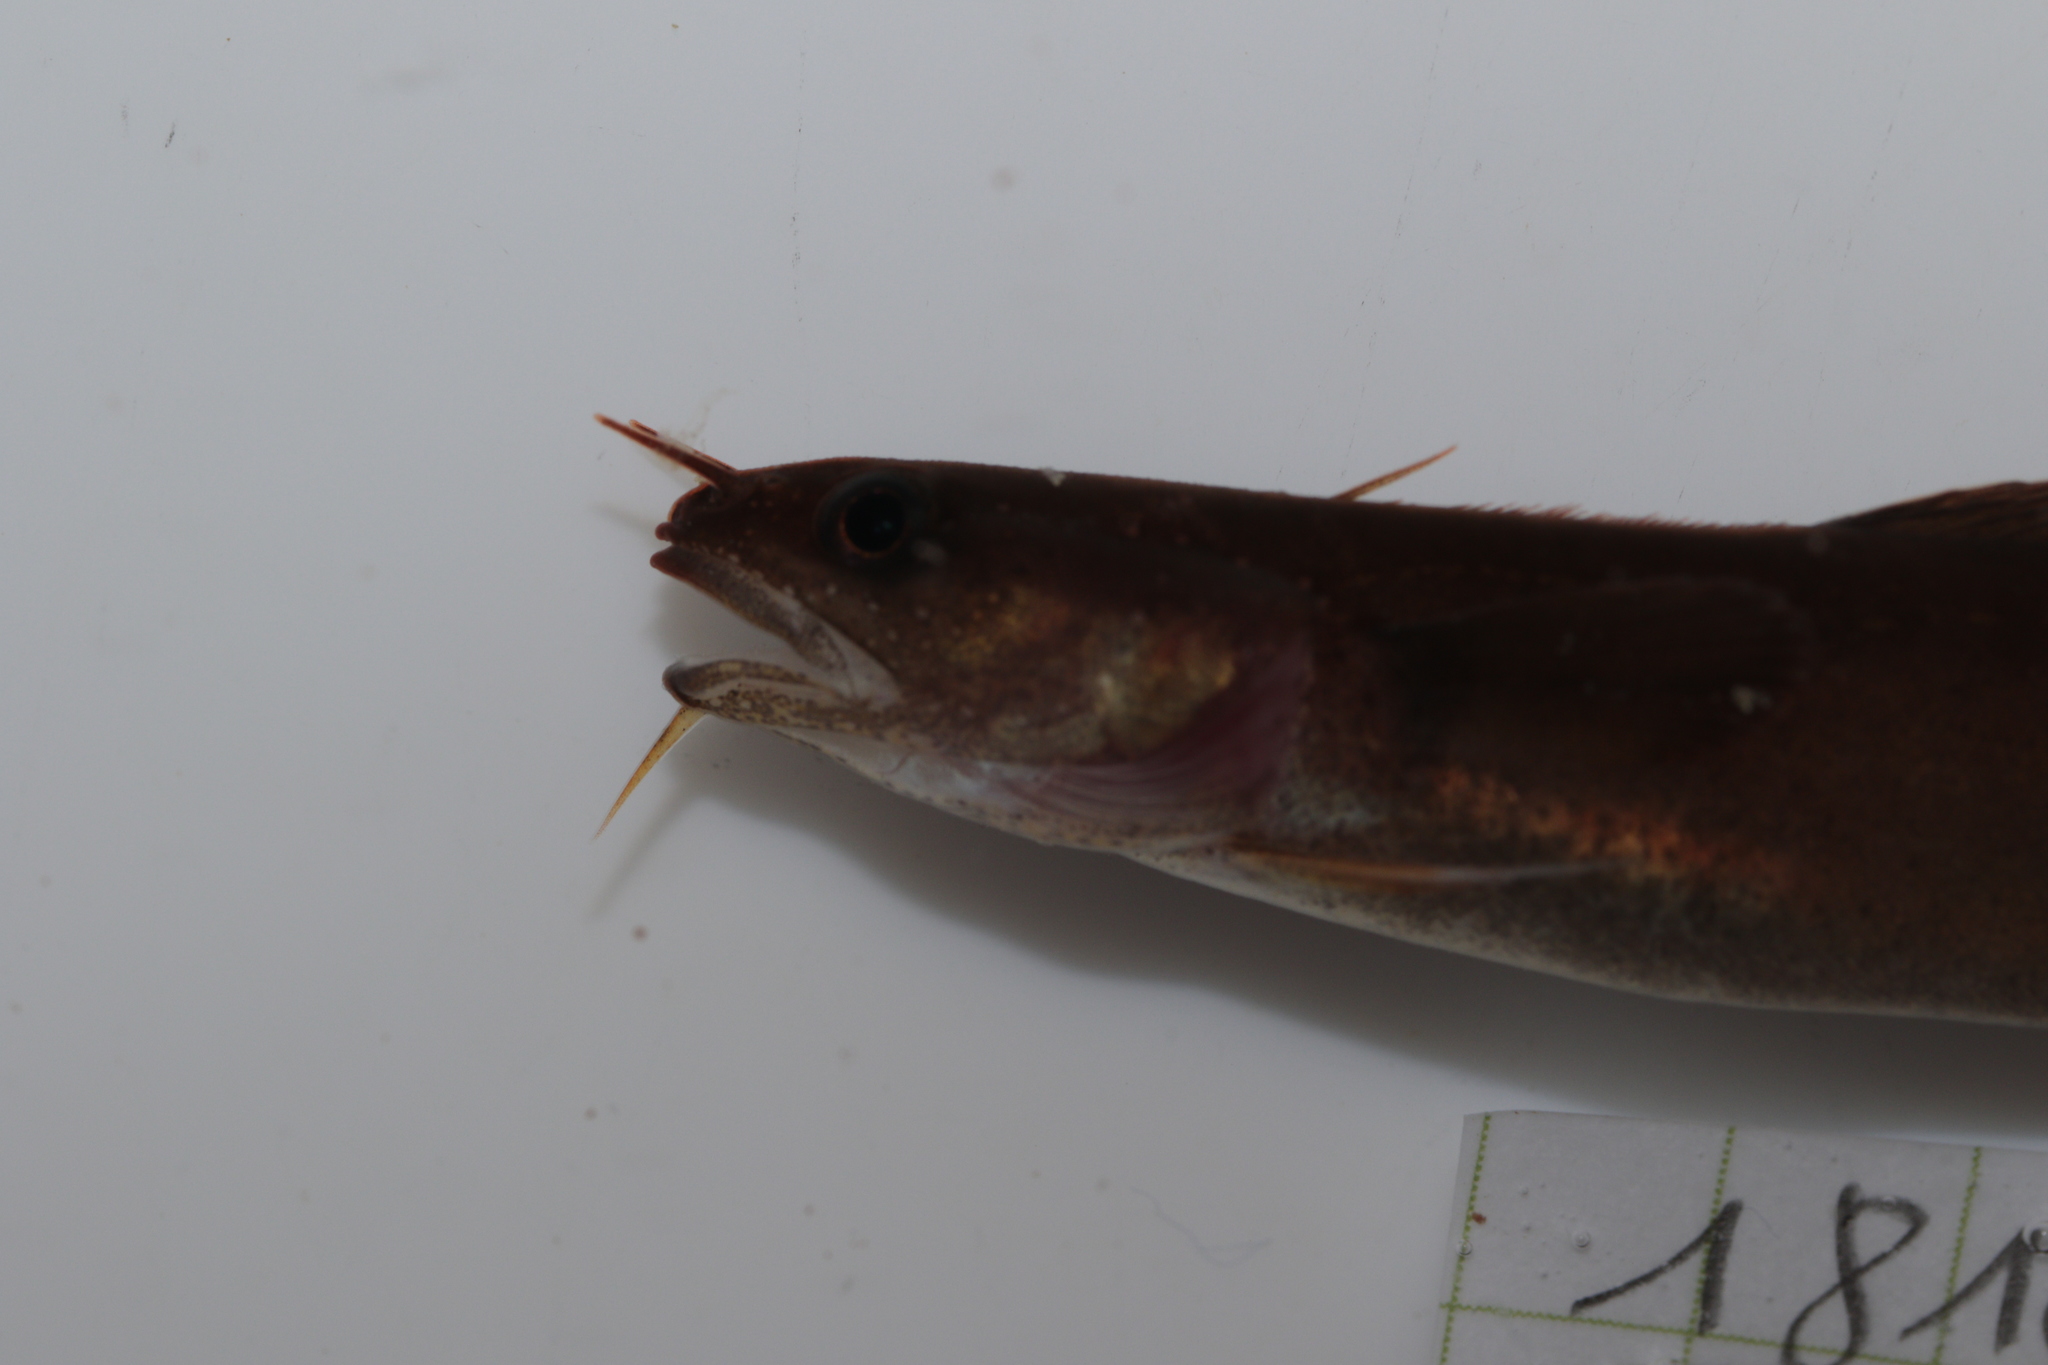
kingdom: Animalia
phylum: Chordata
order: Gadiformes
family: Lotidae
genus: Gaidropsarus
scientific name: Gaidropsarus mediterraneus
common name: Shore rockling
